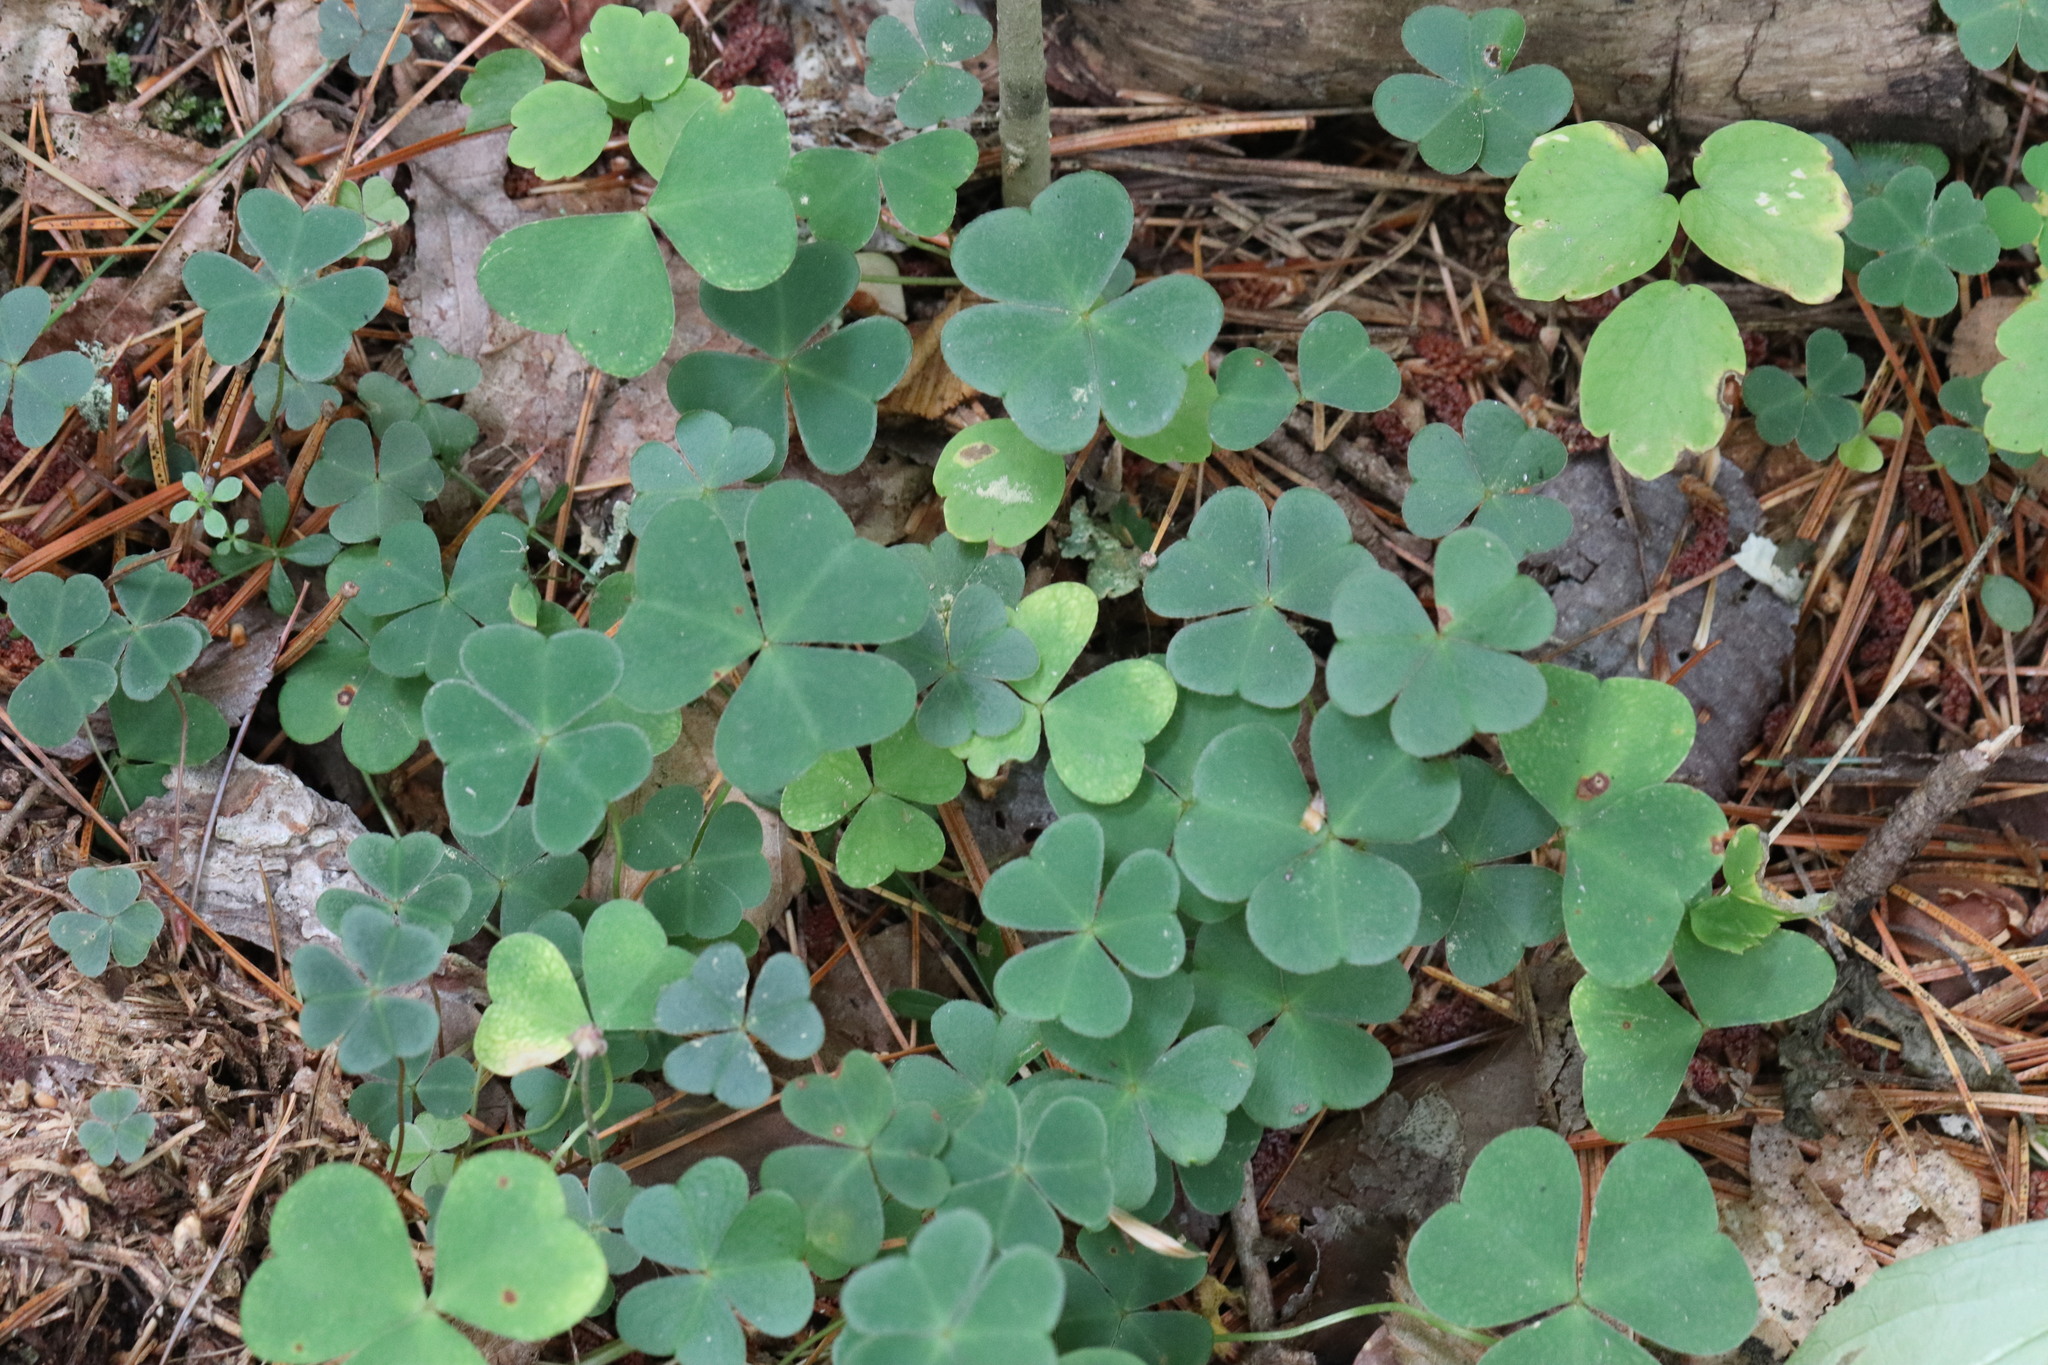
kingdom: Plantae
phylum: Tracheophyta
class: Magnoliopsida
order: Oxalidales
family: Oxalidaceae
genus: Oxalis
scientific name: Oxalis acetosella
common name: Wood-sorrel
